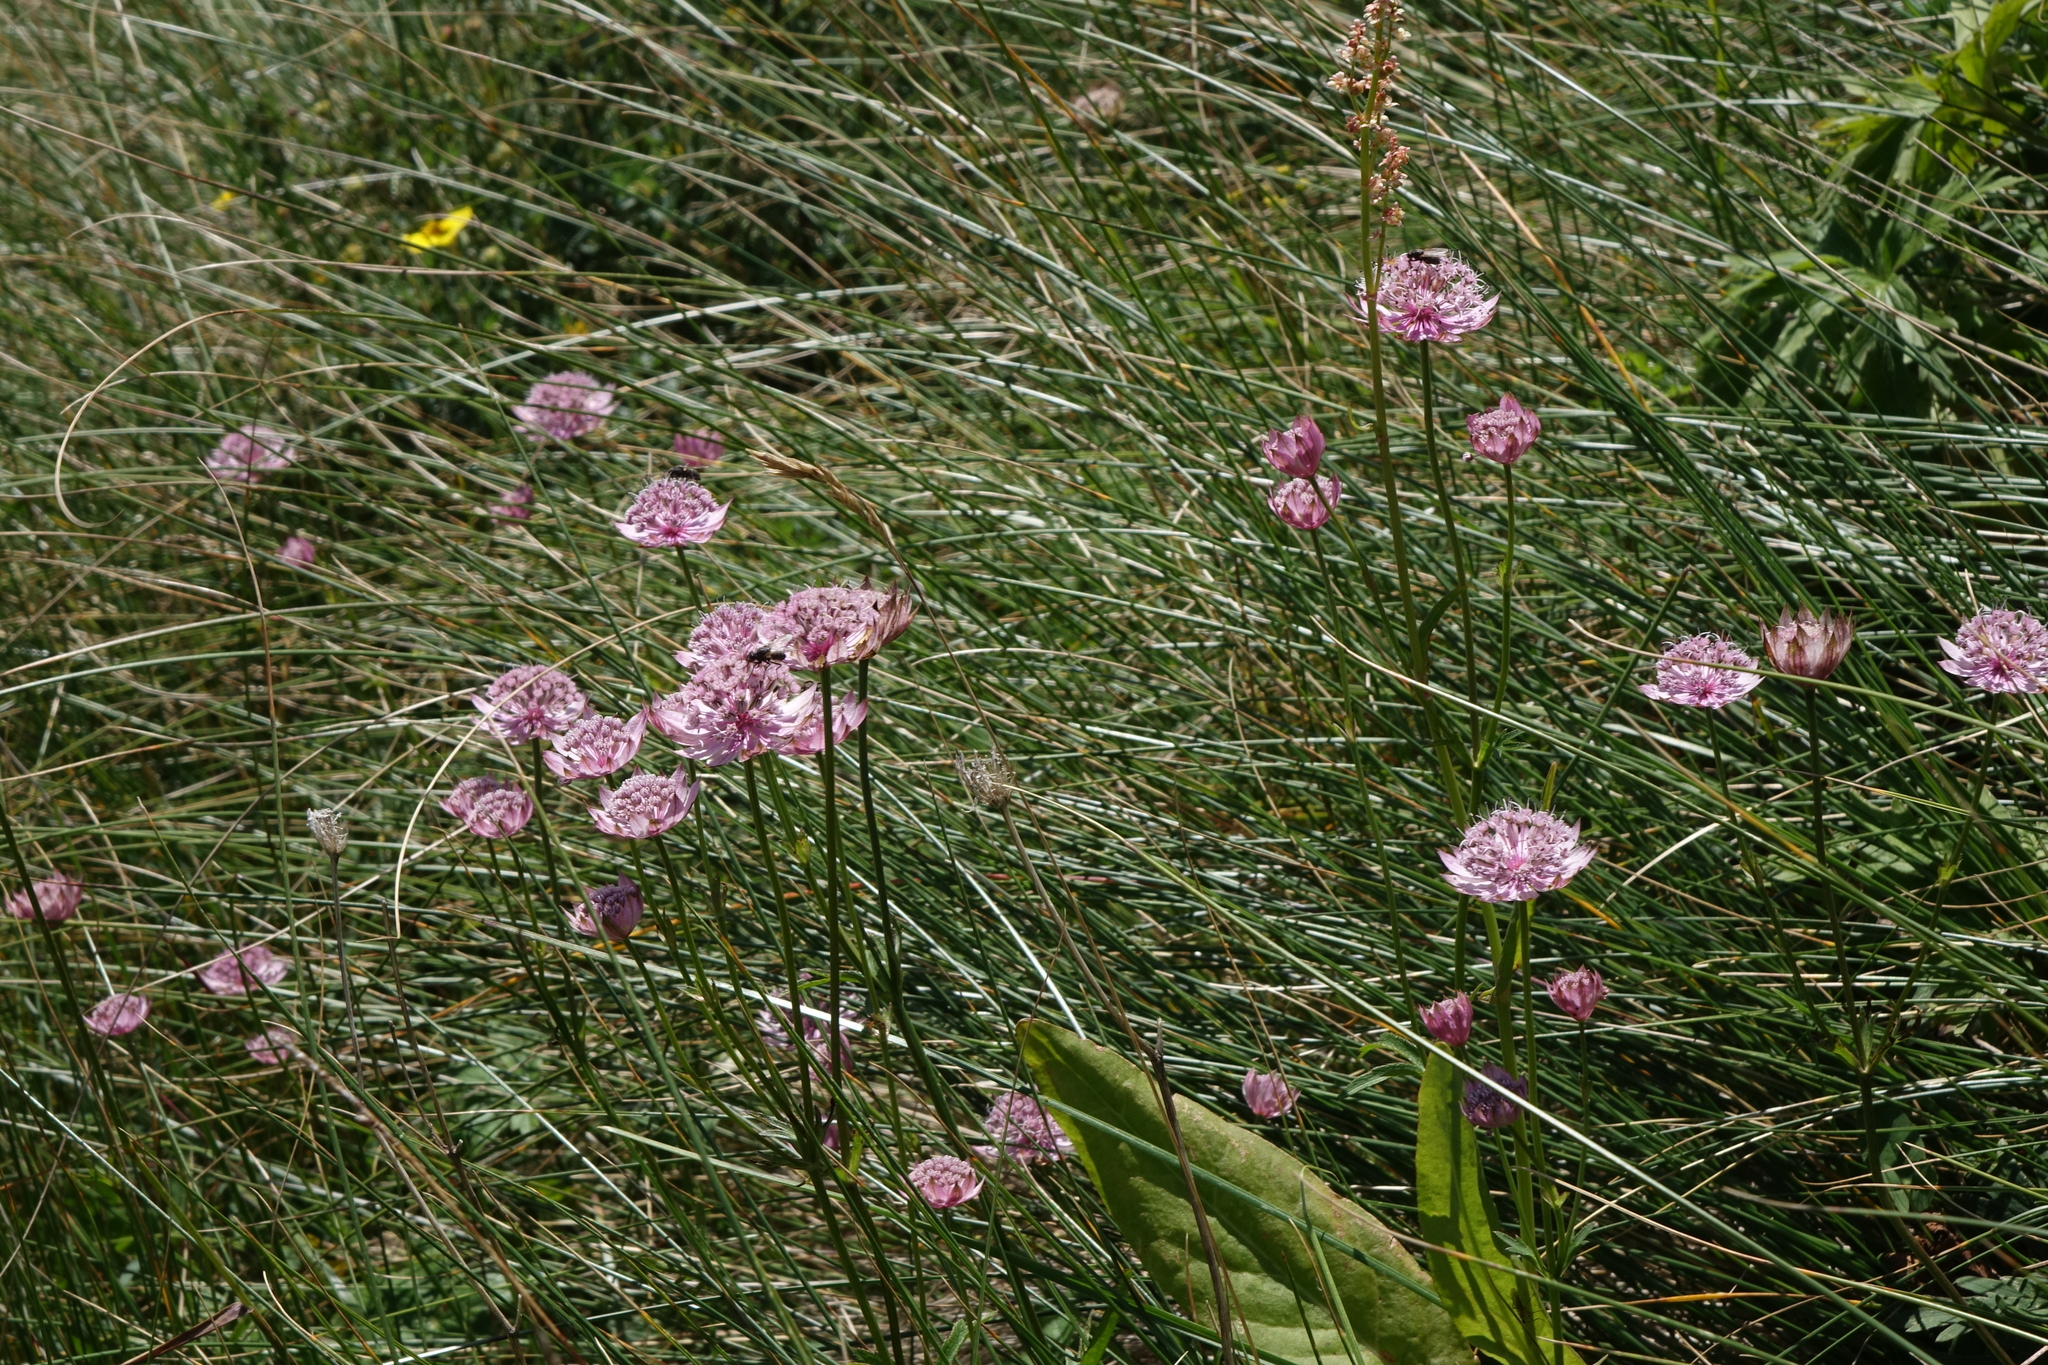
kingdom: Plantae
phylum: Tracheophyta
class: Magnoliopsida
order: Apiales
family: Apiaceae
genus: Astrantia
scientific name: Astrantia trifida
